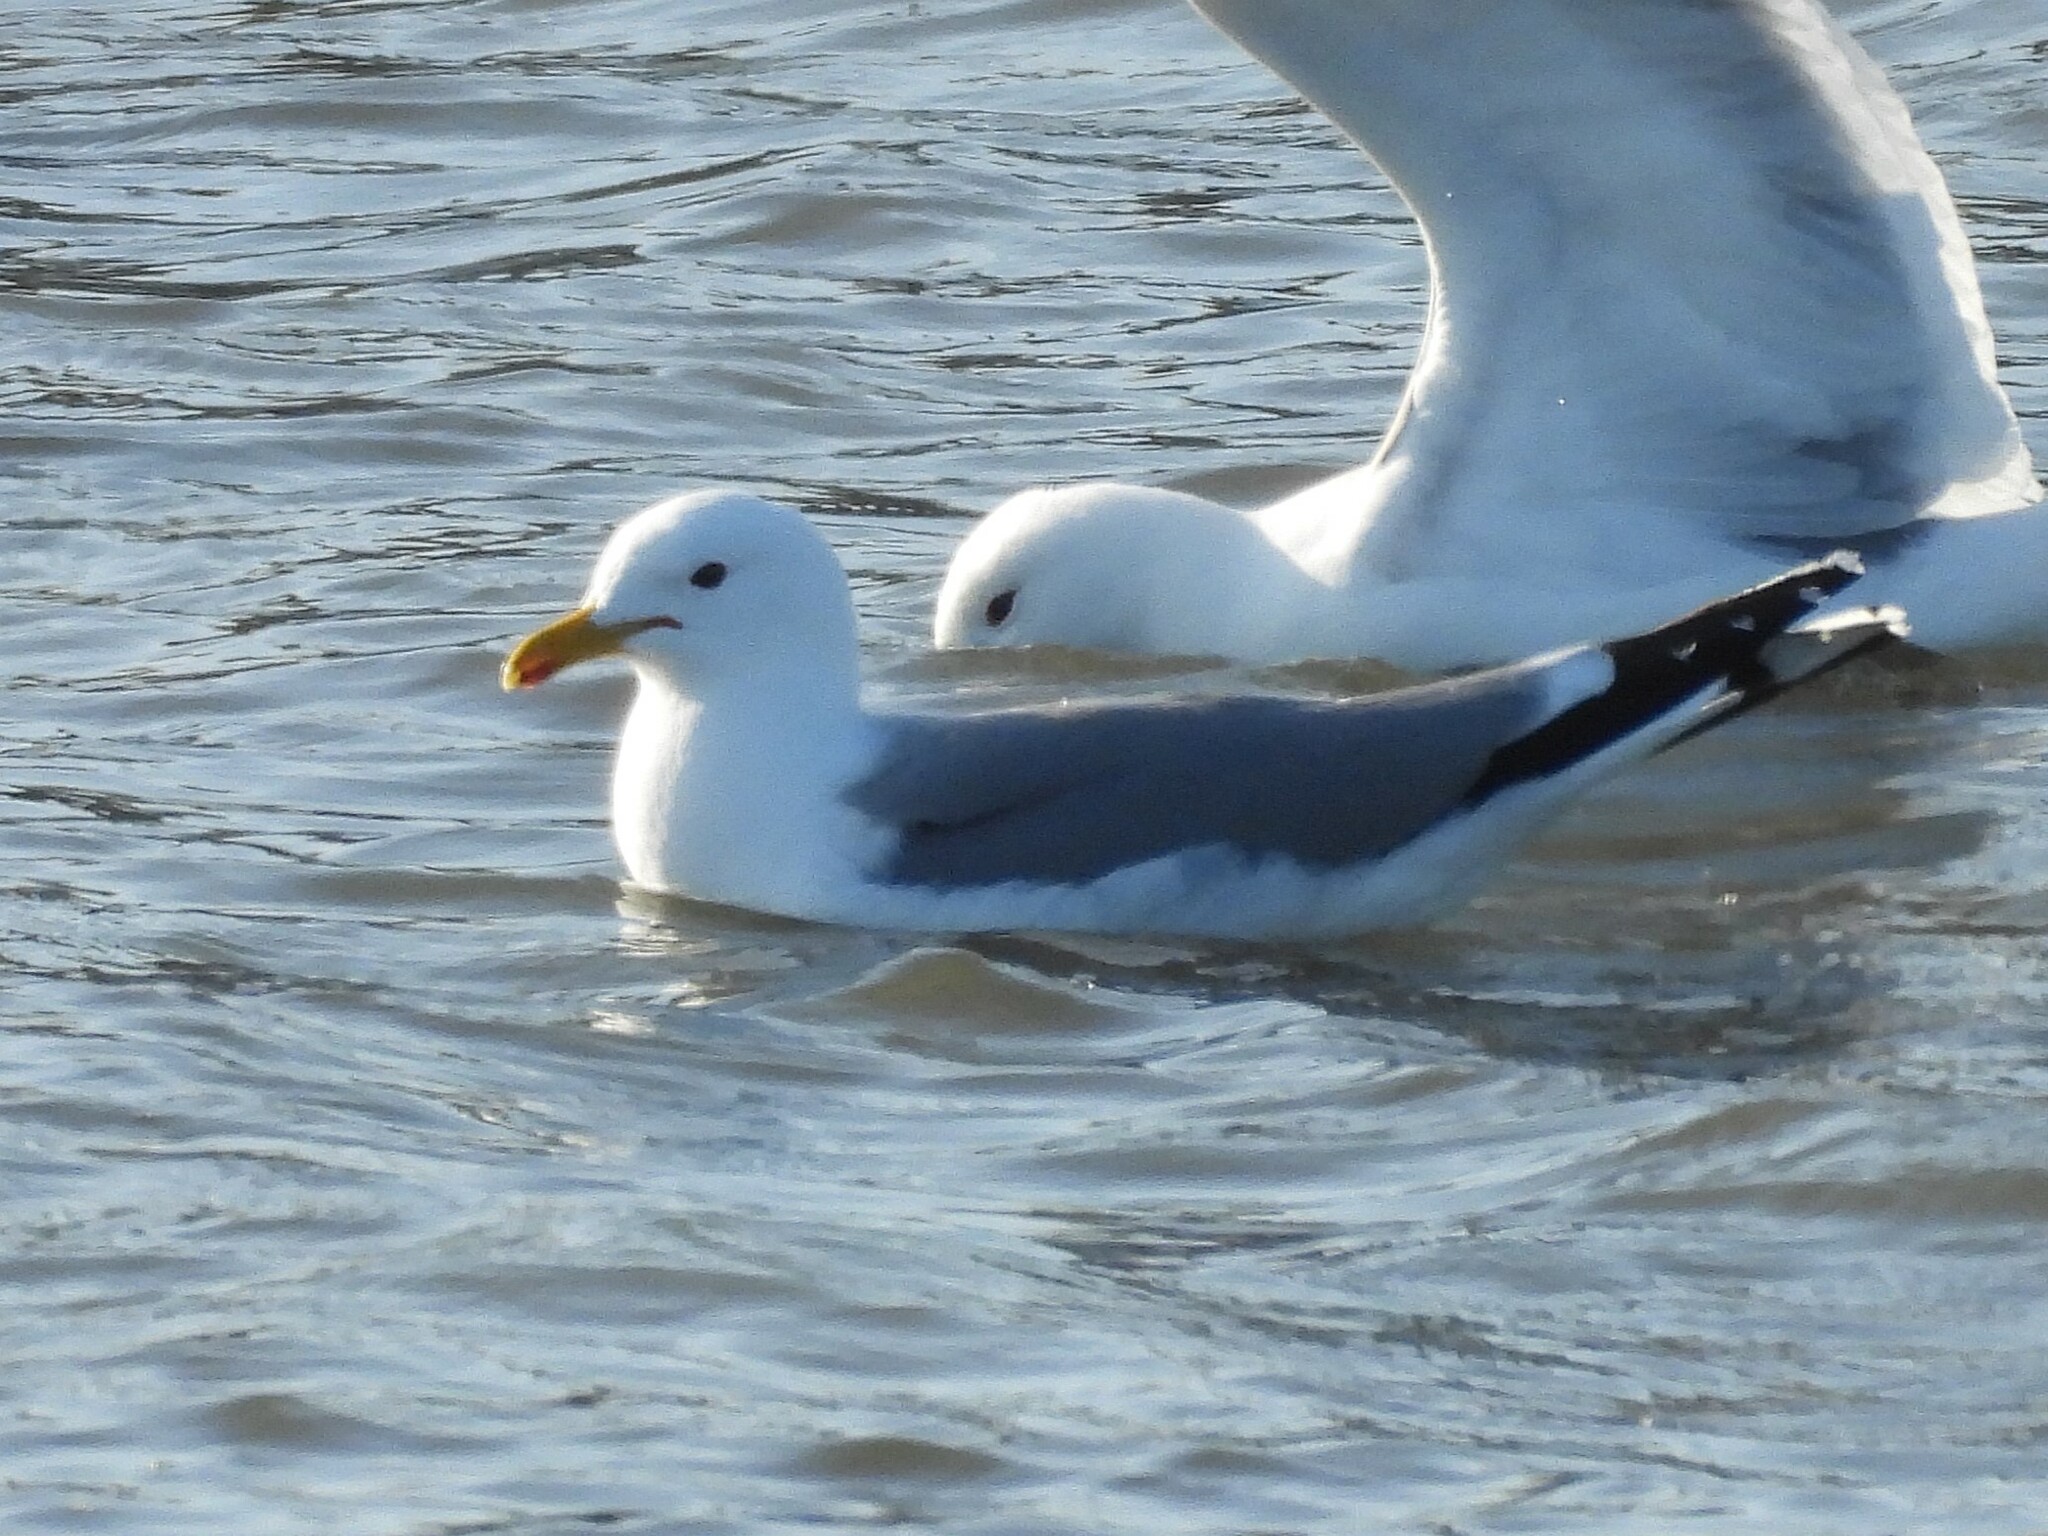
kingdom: Animalia
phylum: Chordata
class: Aves
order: Charadriiformes
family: Laridae
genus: Larus
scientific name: Larus californicus
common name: California gull
